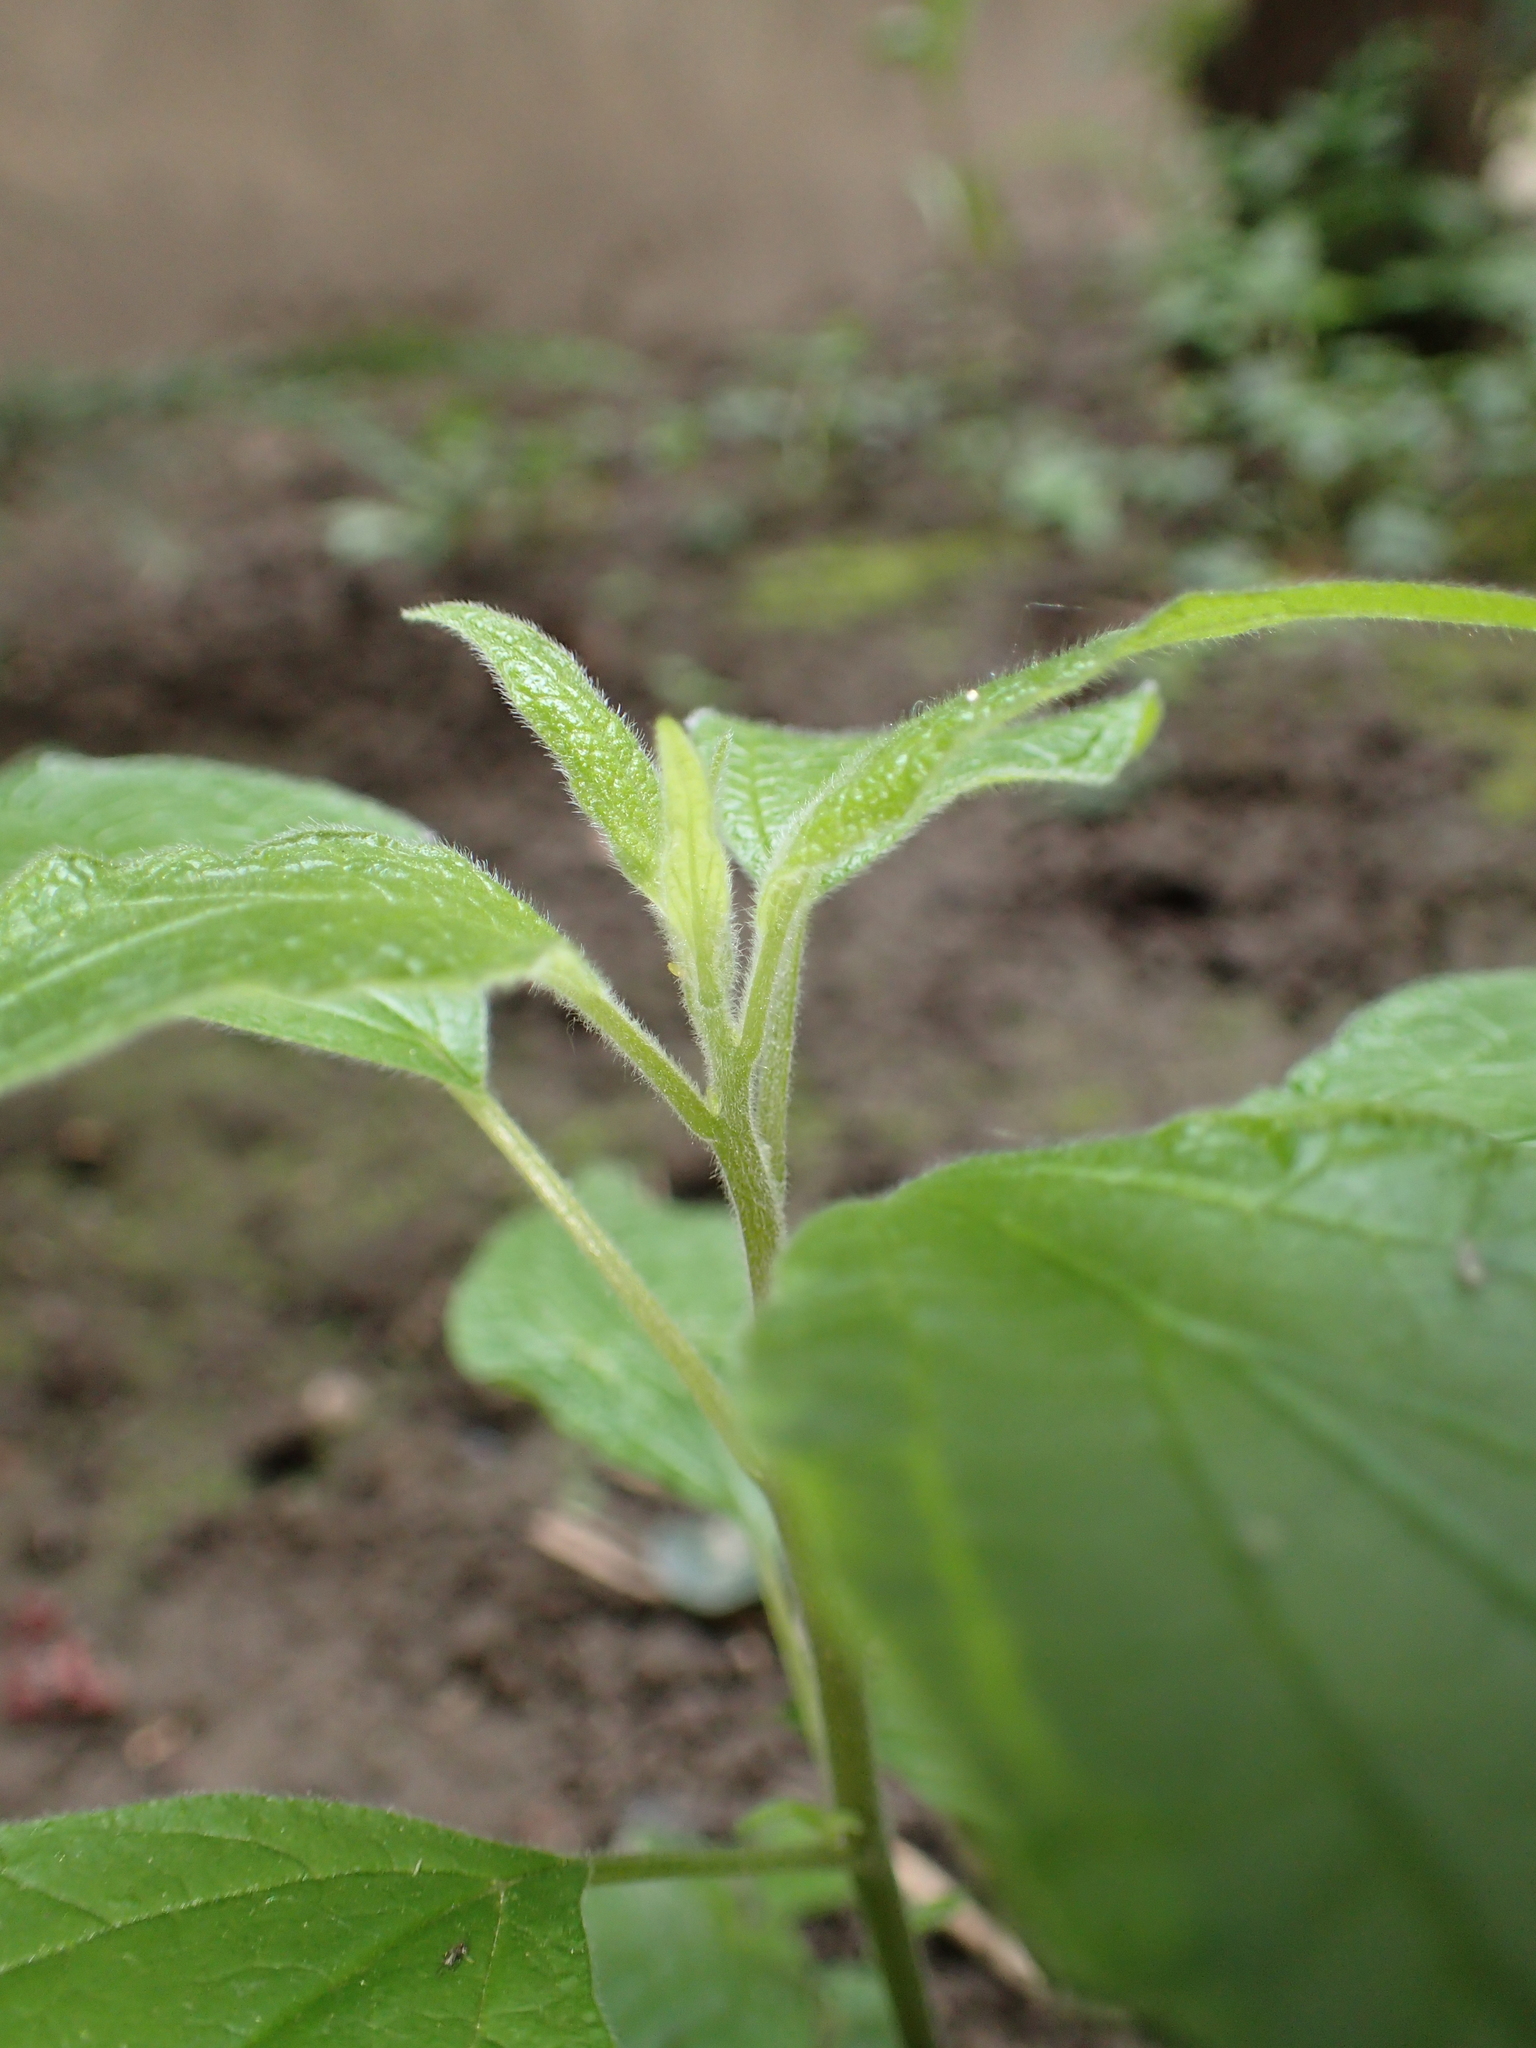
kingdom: Plantae
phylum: Tracheophyta
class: Magnoliopsida
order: Rosales
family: Urticaceae
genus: Parietaria
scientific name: Parietaria officinalis
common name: Eastern pellitory-of-the-wall
